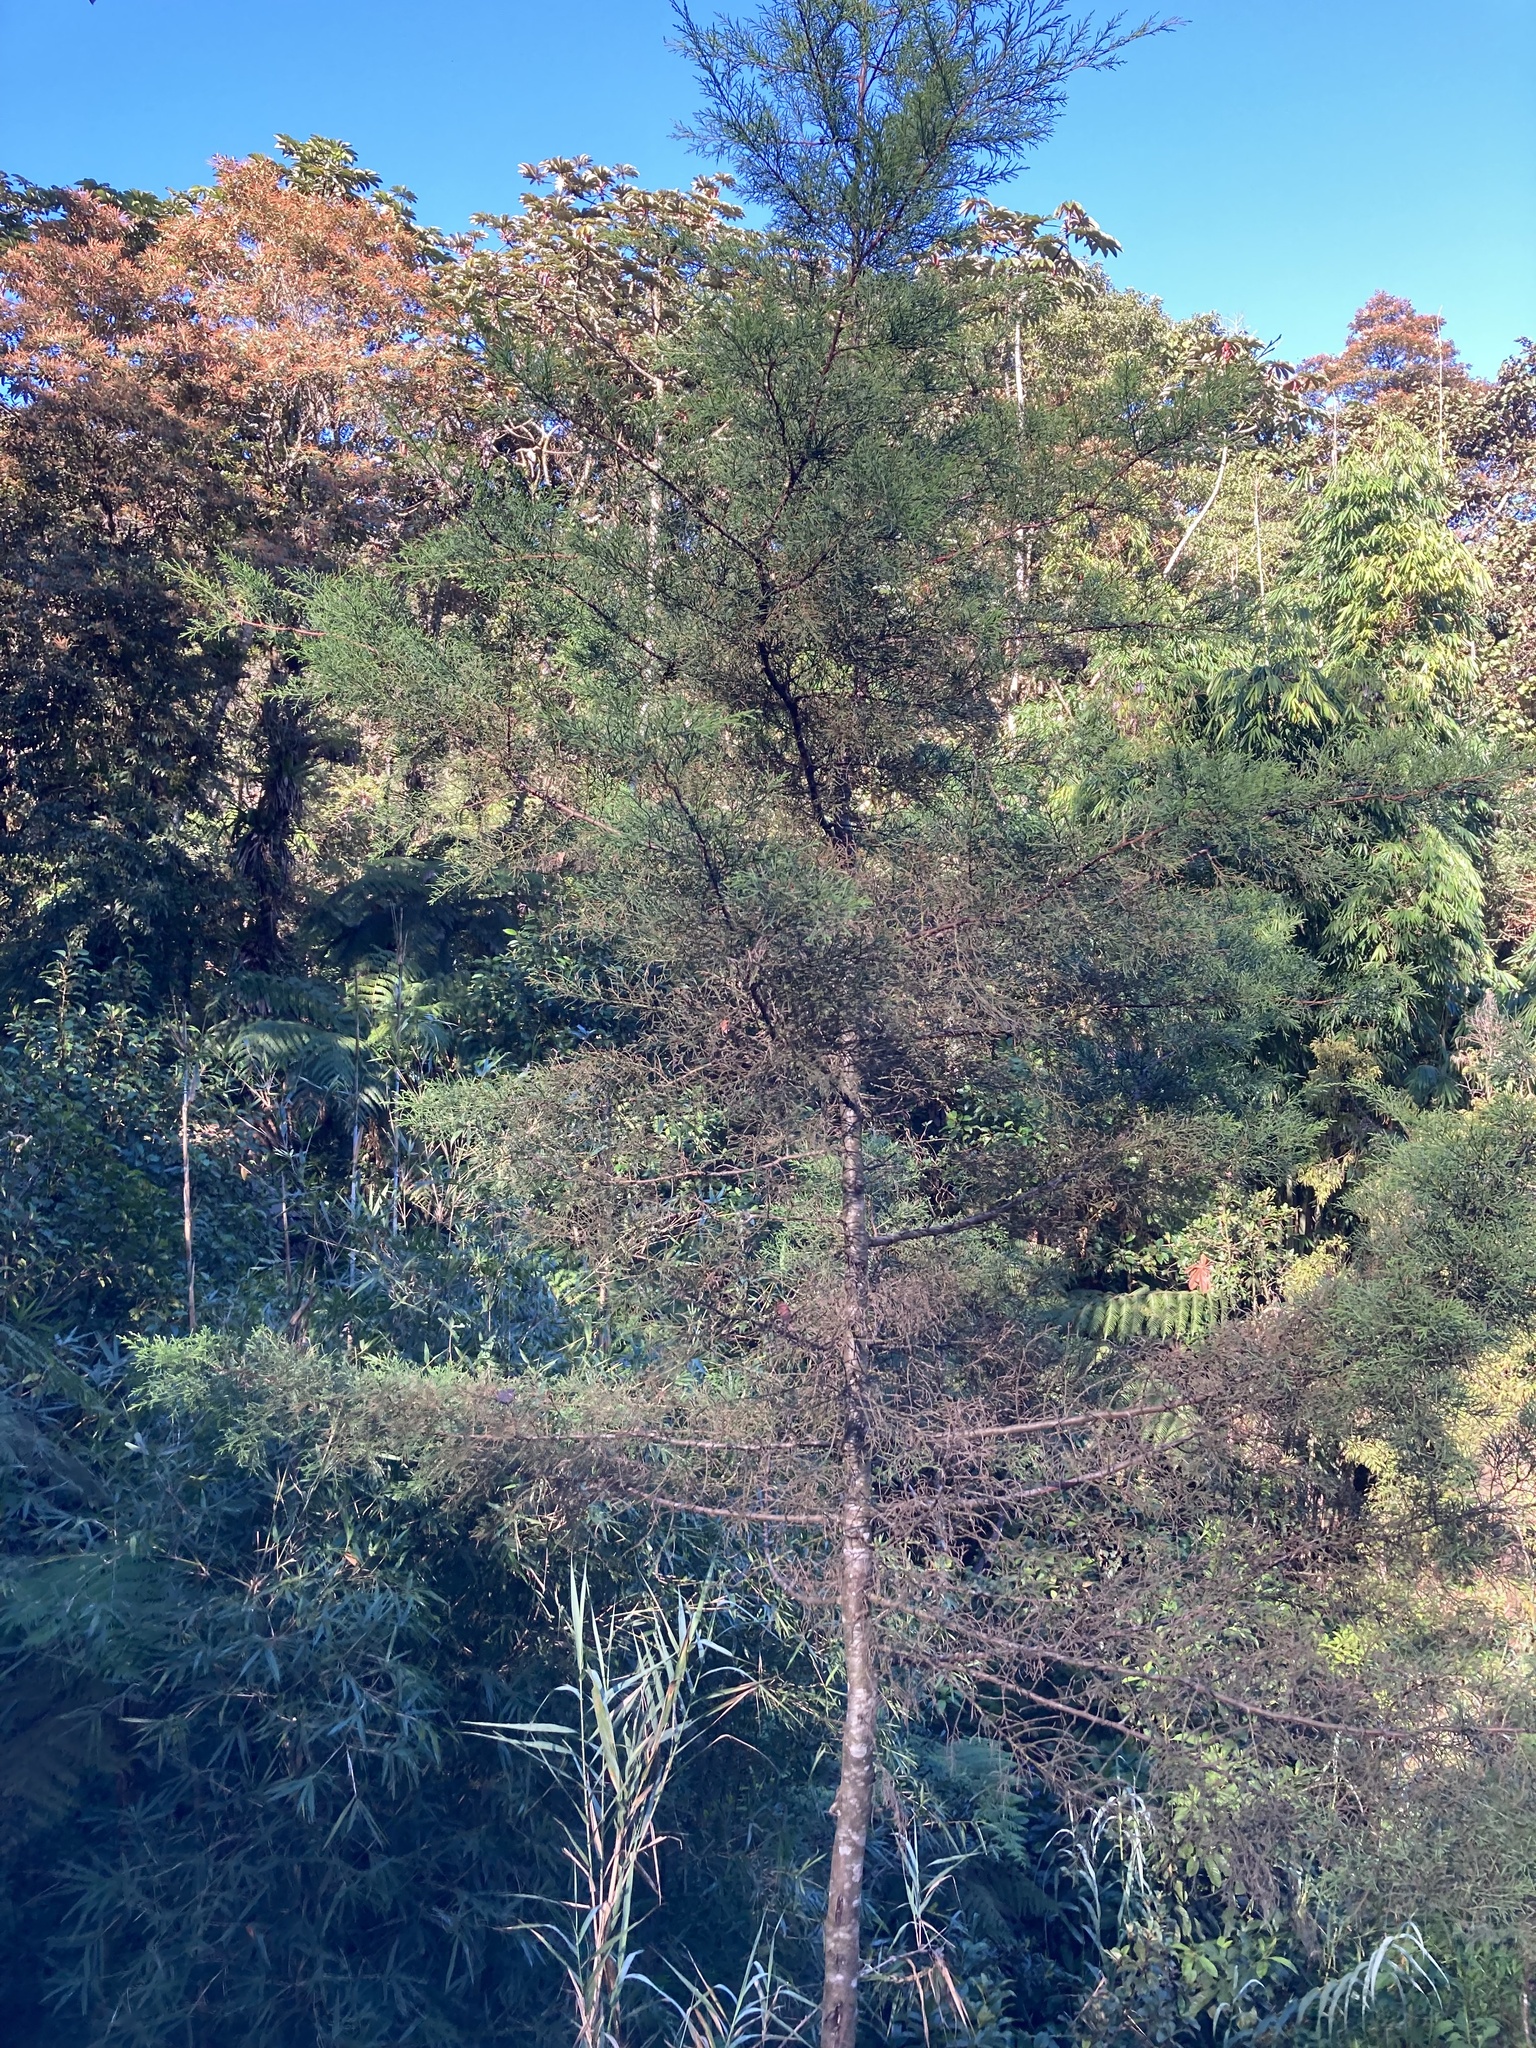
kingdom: Plantae
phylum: Tracheophyta
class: Pinopsida
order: Pinales
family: Cupressaceae
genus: Cupressus
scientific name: Cupressus lusitanica
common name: Mexican cypress
